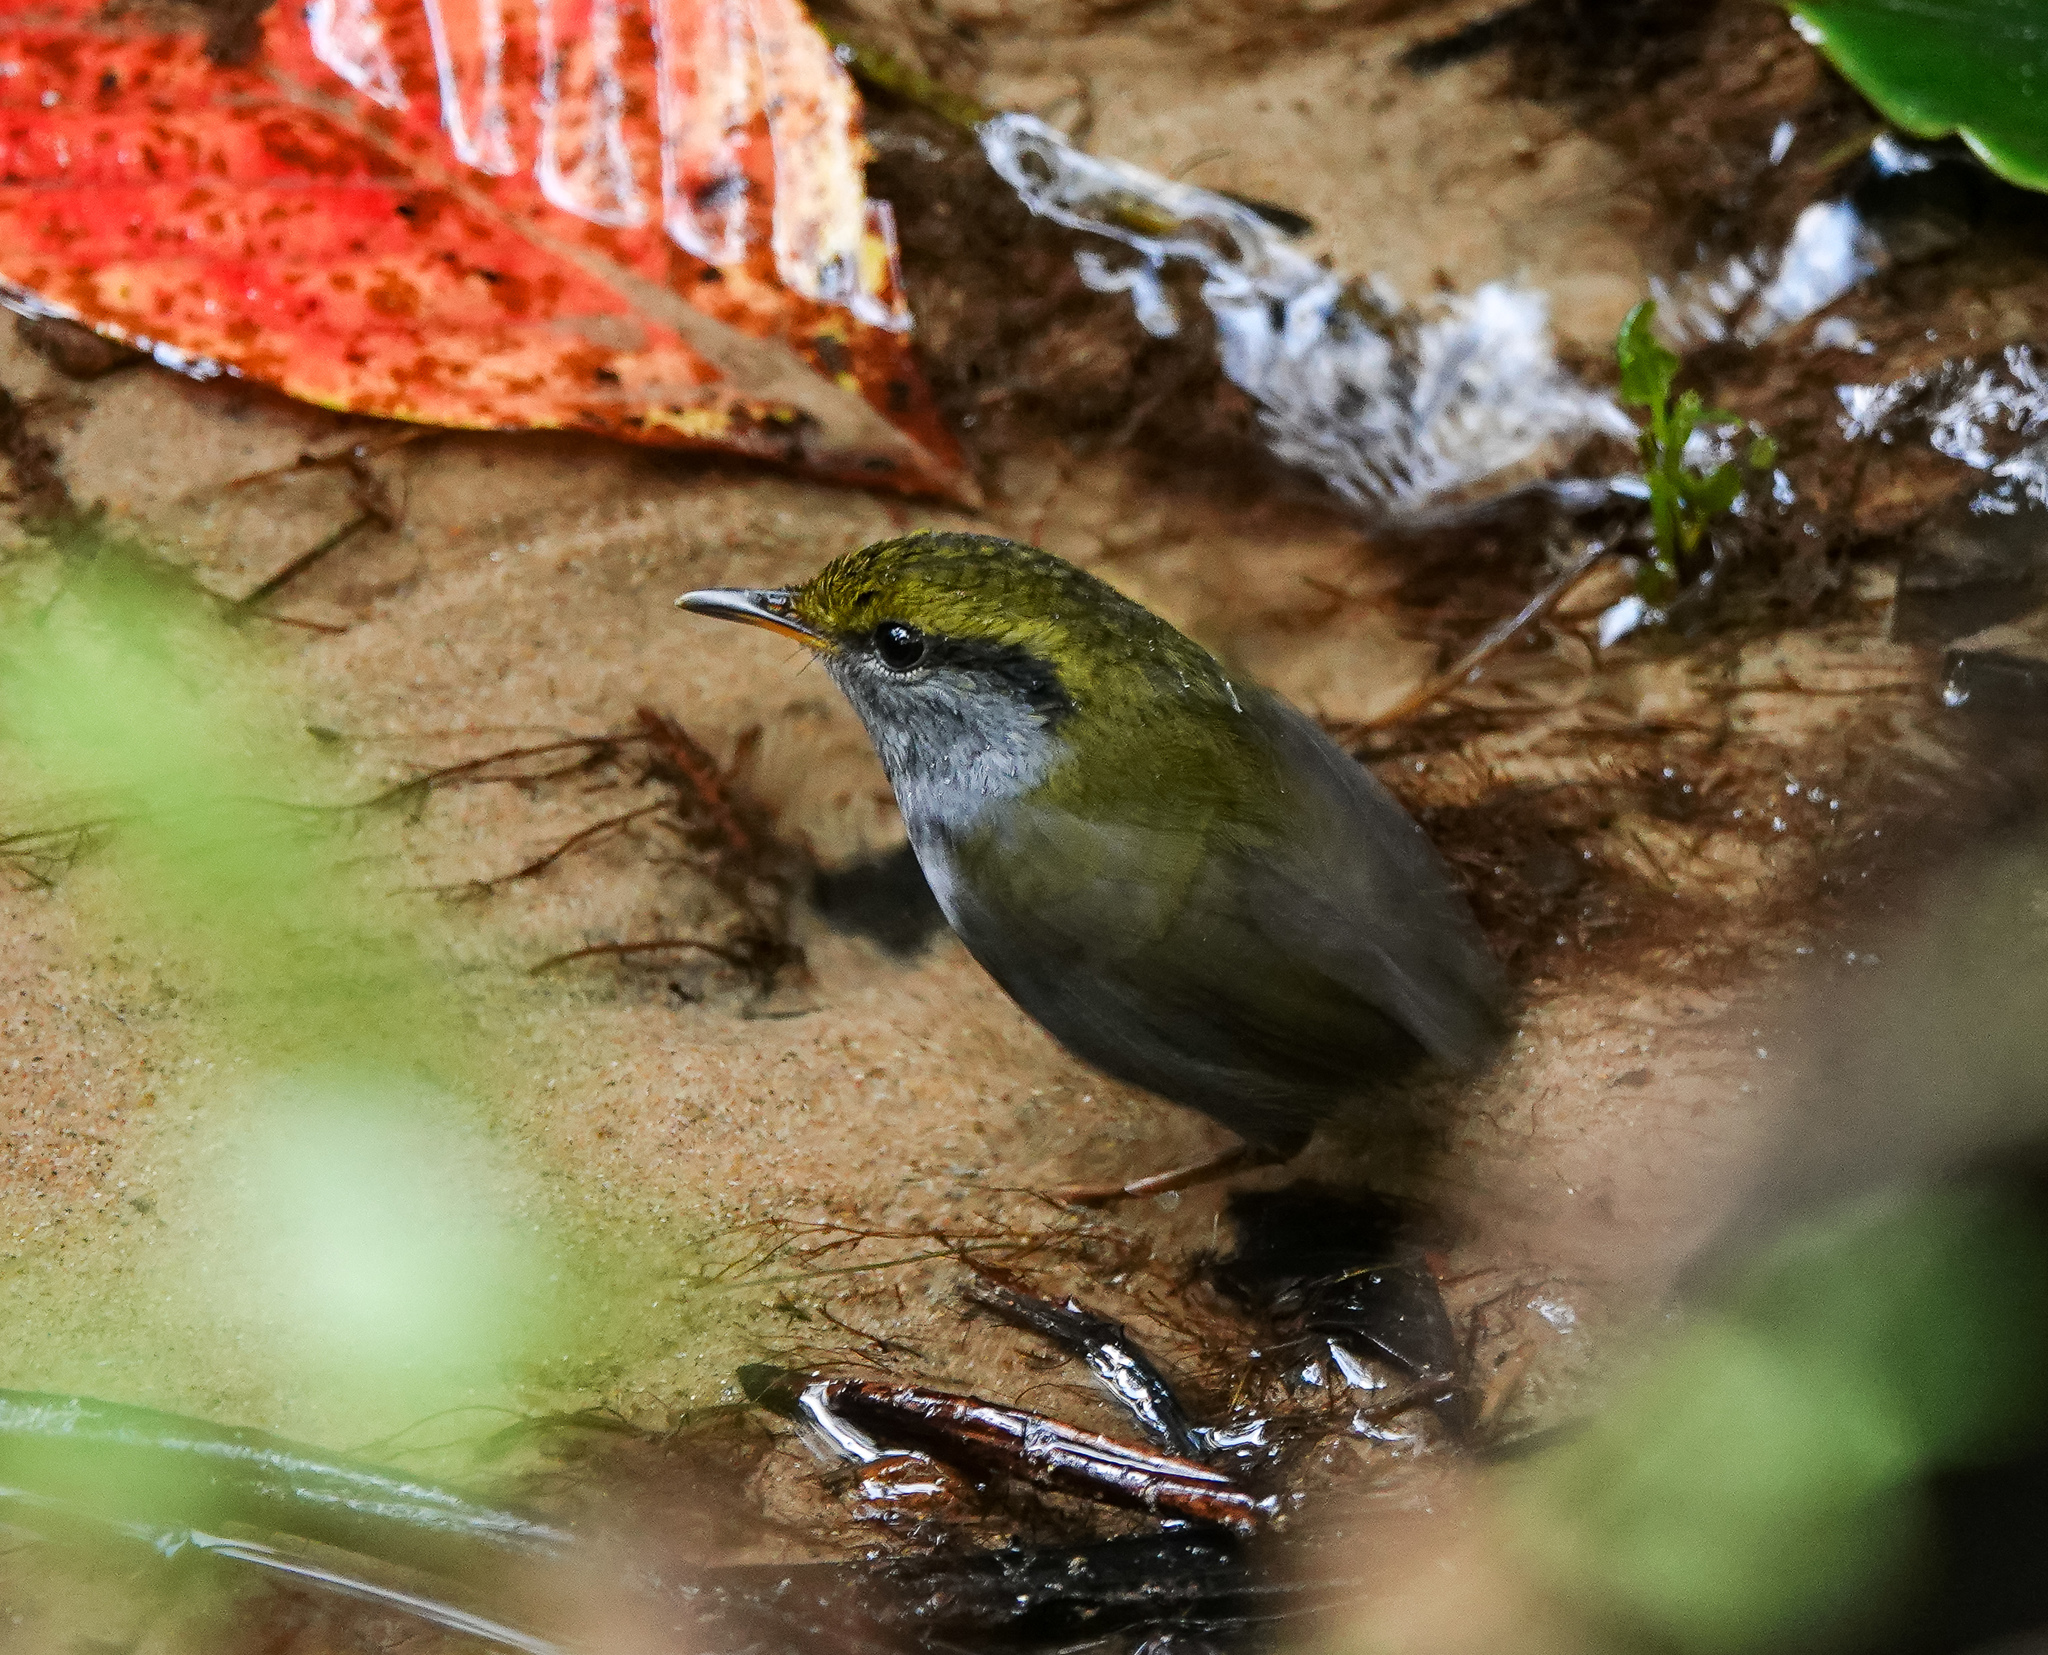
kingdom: Animalia
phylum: Chordata
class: Aves
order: Passeriformes
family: Cettiidae
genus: Tesia
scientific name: Tesia cyaniventer
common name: Grey-bellied tesia
